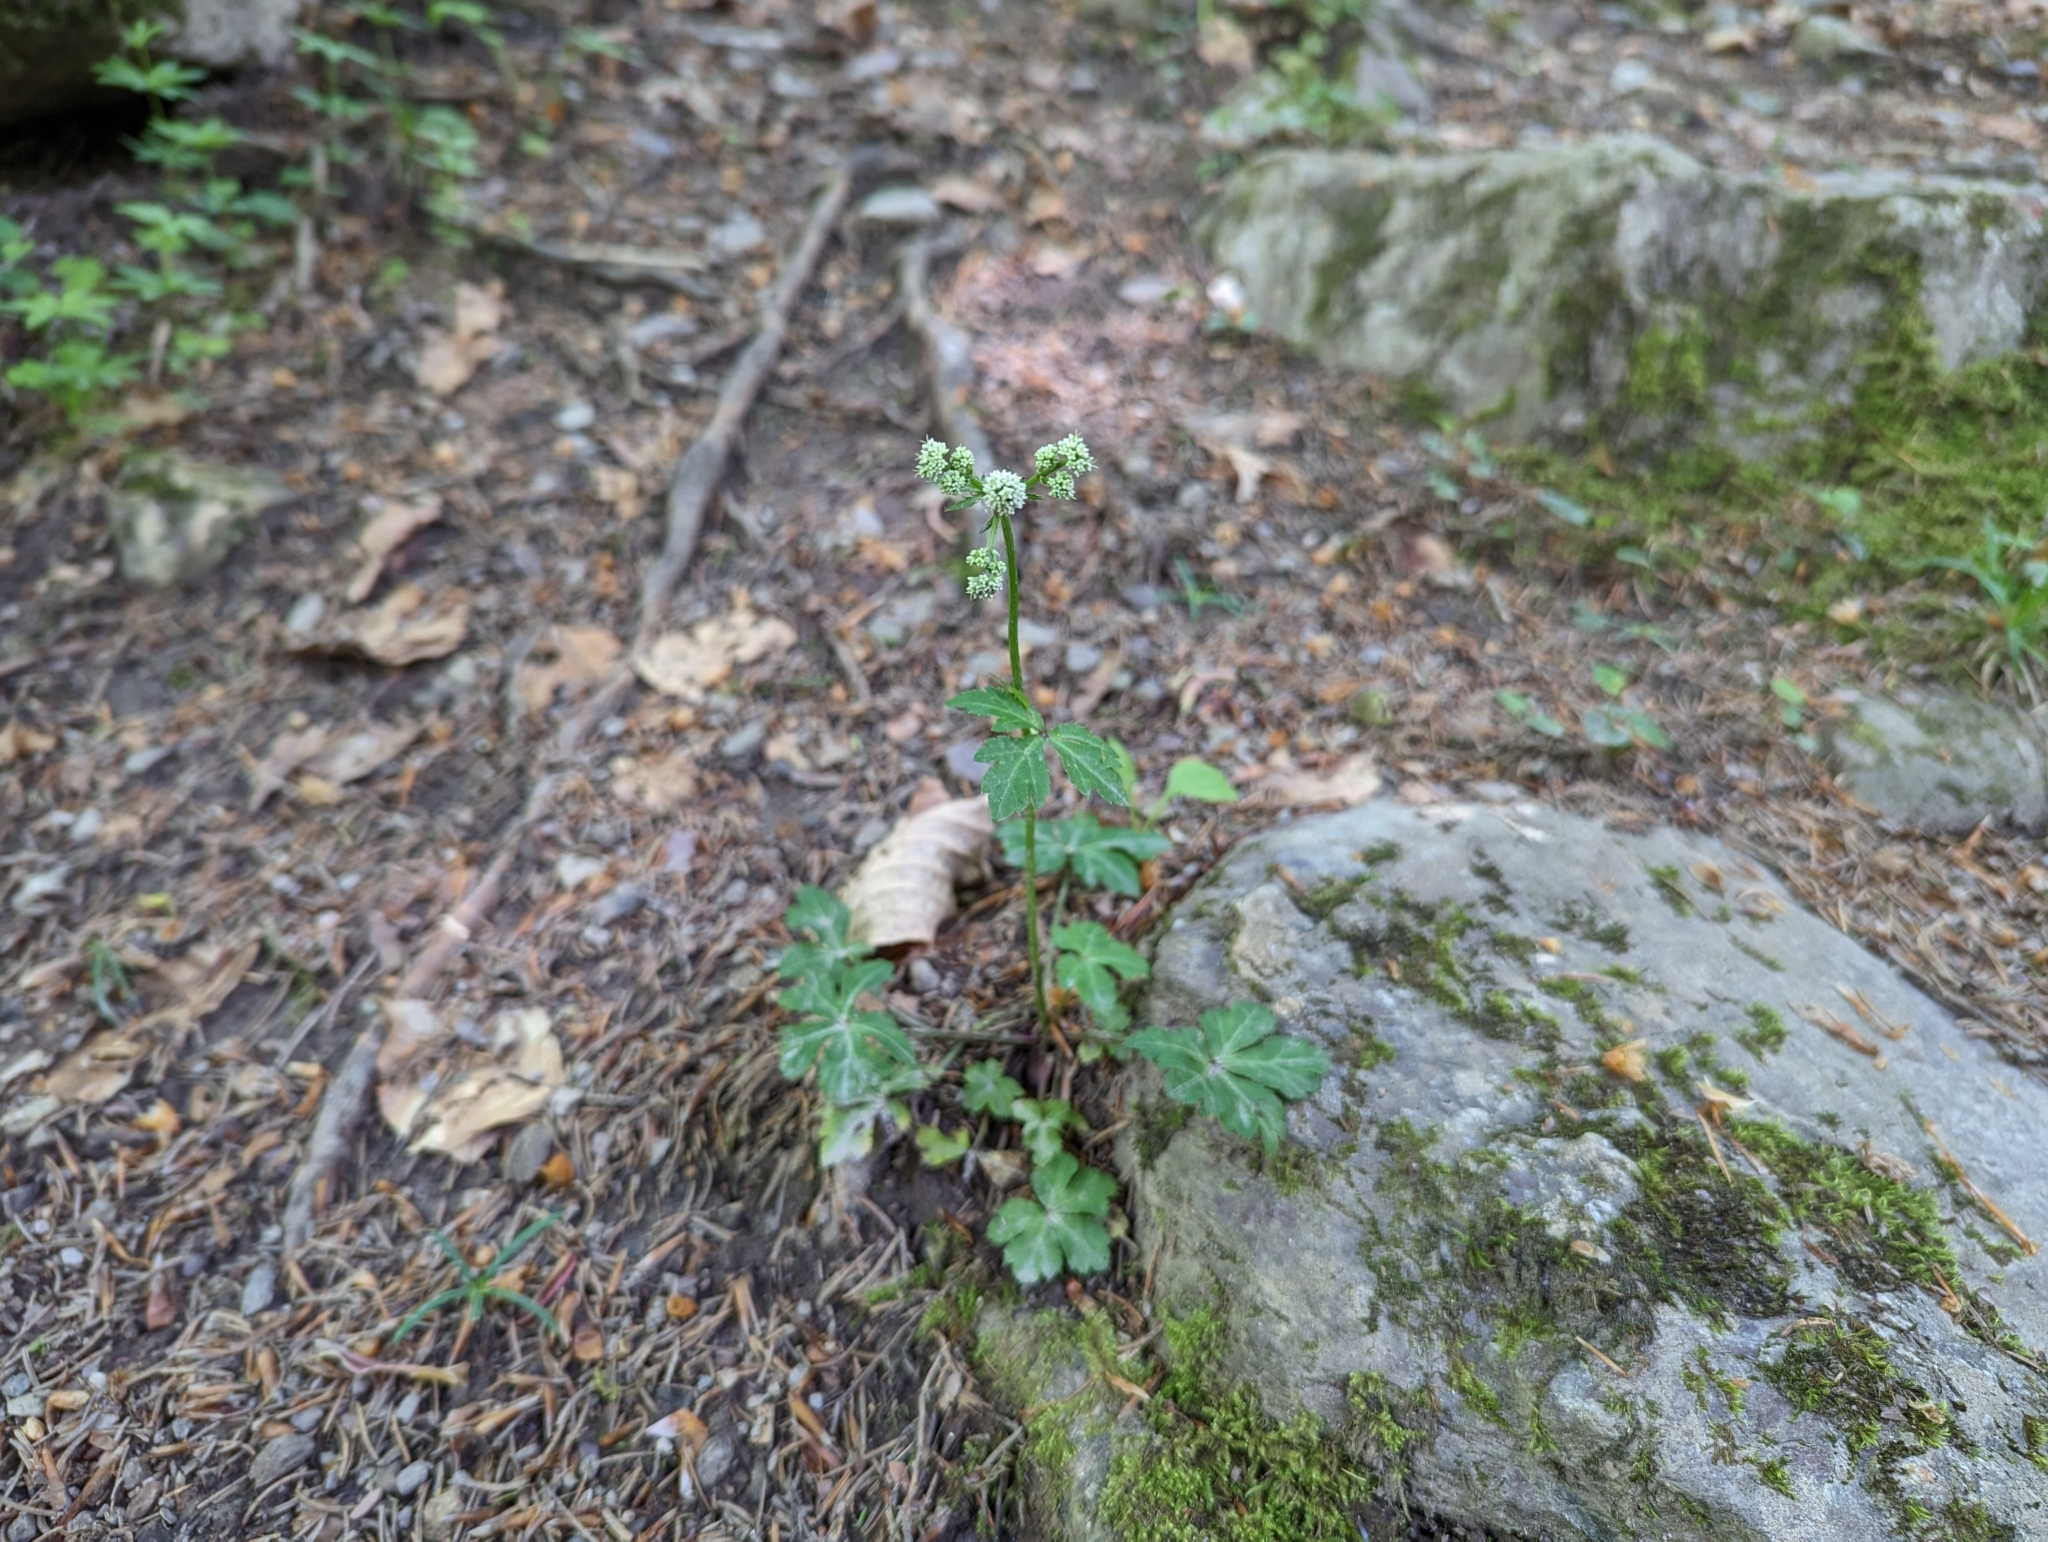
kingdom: Plantae
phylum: Tracheophyta
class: Magnoliopsida
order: Apiales
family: Apiaceae
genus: Sanicula
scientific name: Sanicula europaea
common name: Sanicle
